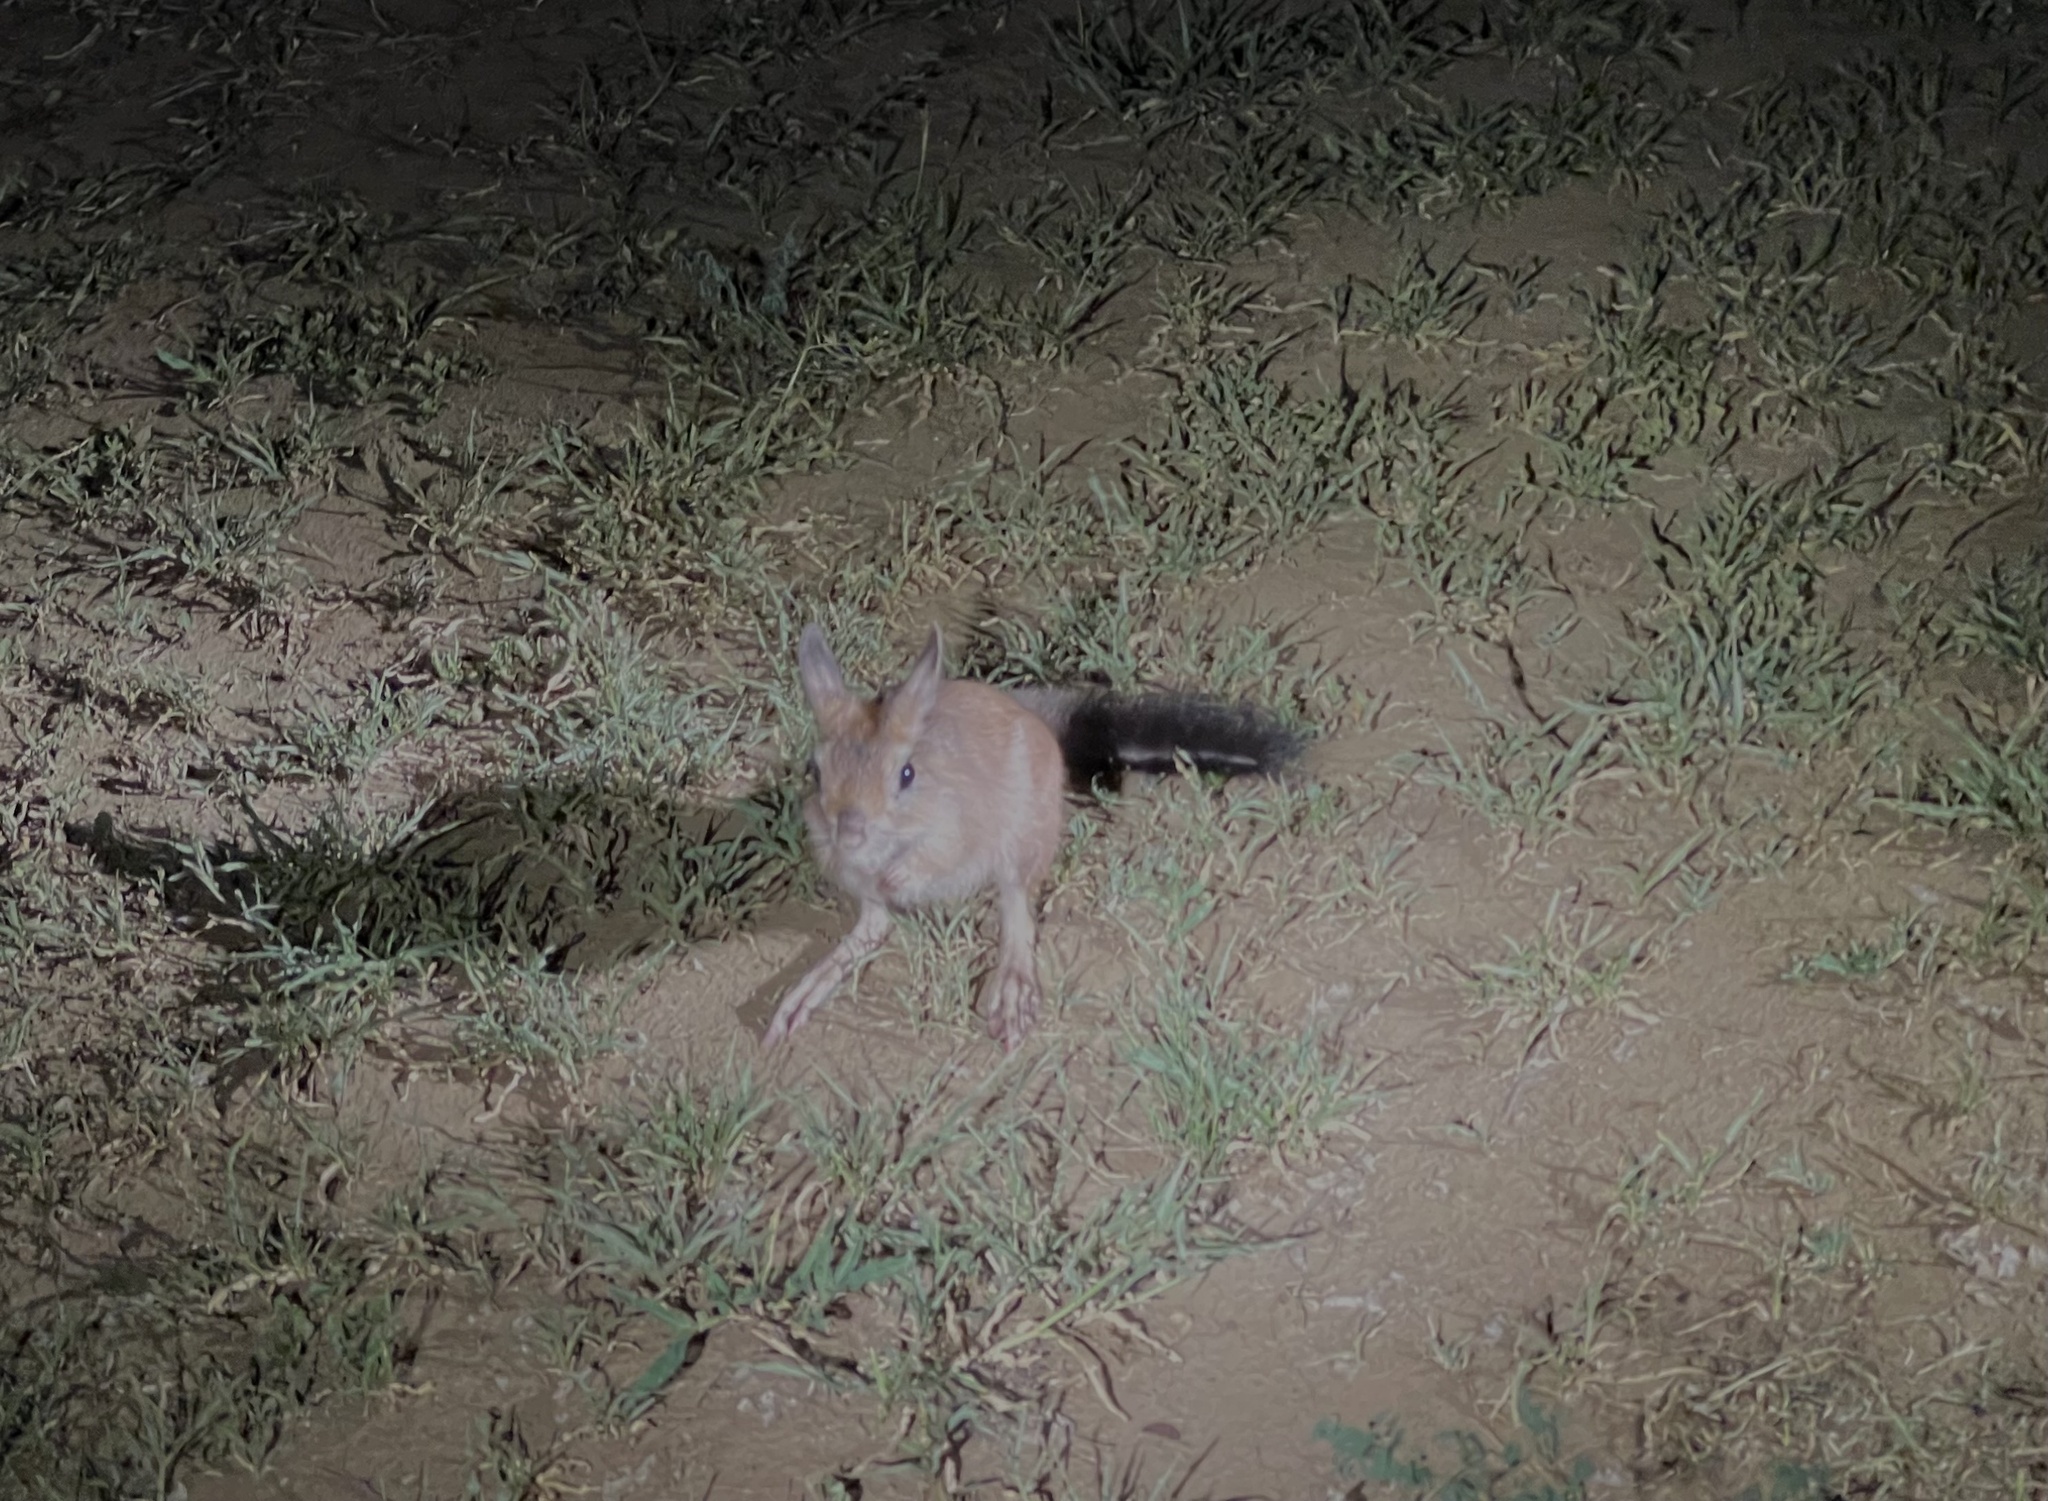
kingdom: Animalia
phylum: Chordata
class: Mammalia
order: Rodentia
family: Pedetidae
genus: Pedetes
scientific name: Pedetes capensis
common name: South african spring hare
